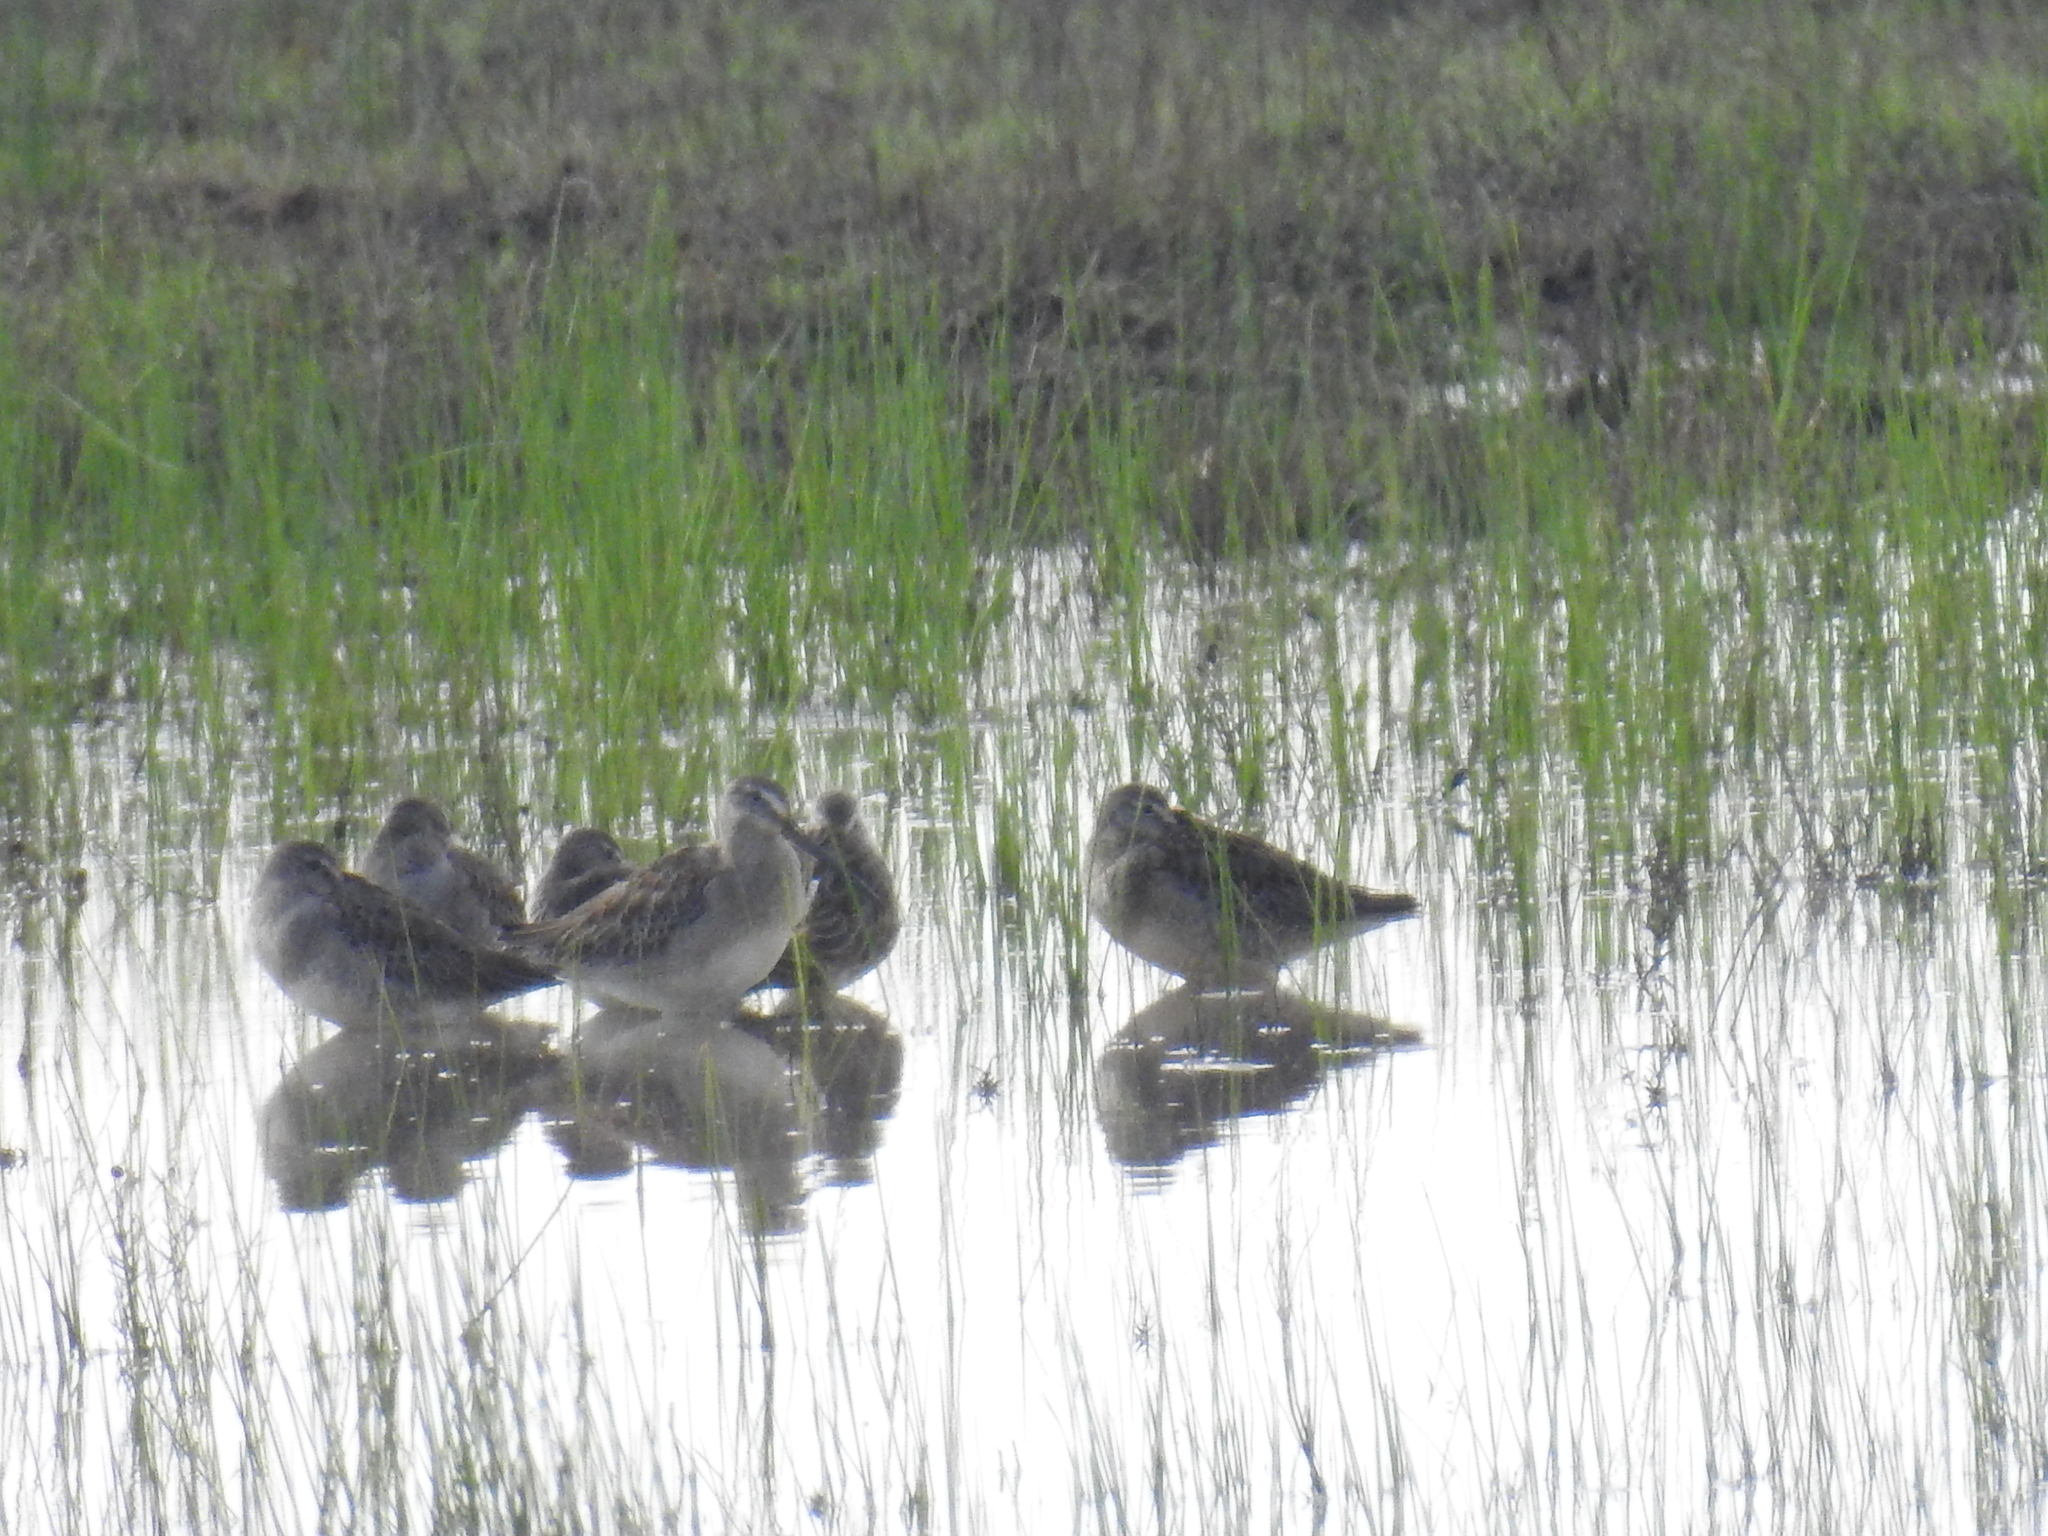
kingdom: Animalia
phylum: Chordata
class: Aves
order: Charadriiformes
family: Scolopacidae
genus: Limnodromus
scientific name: Limnodromus scolopaceus
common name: Long-billed dowitcher
